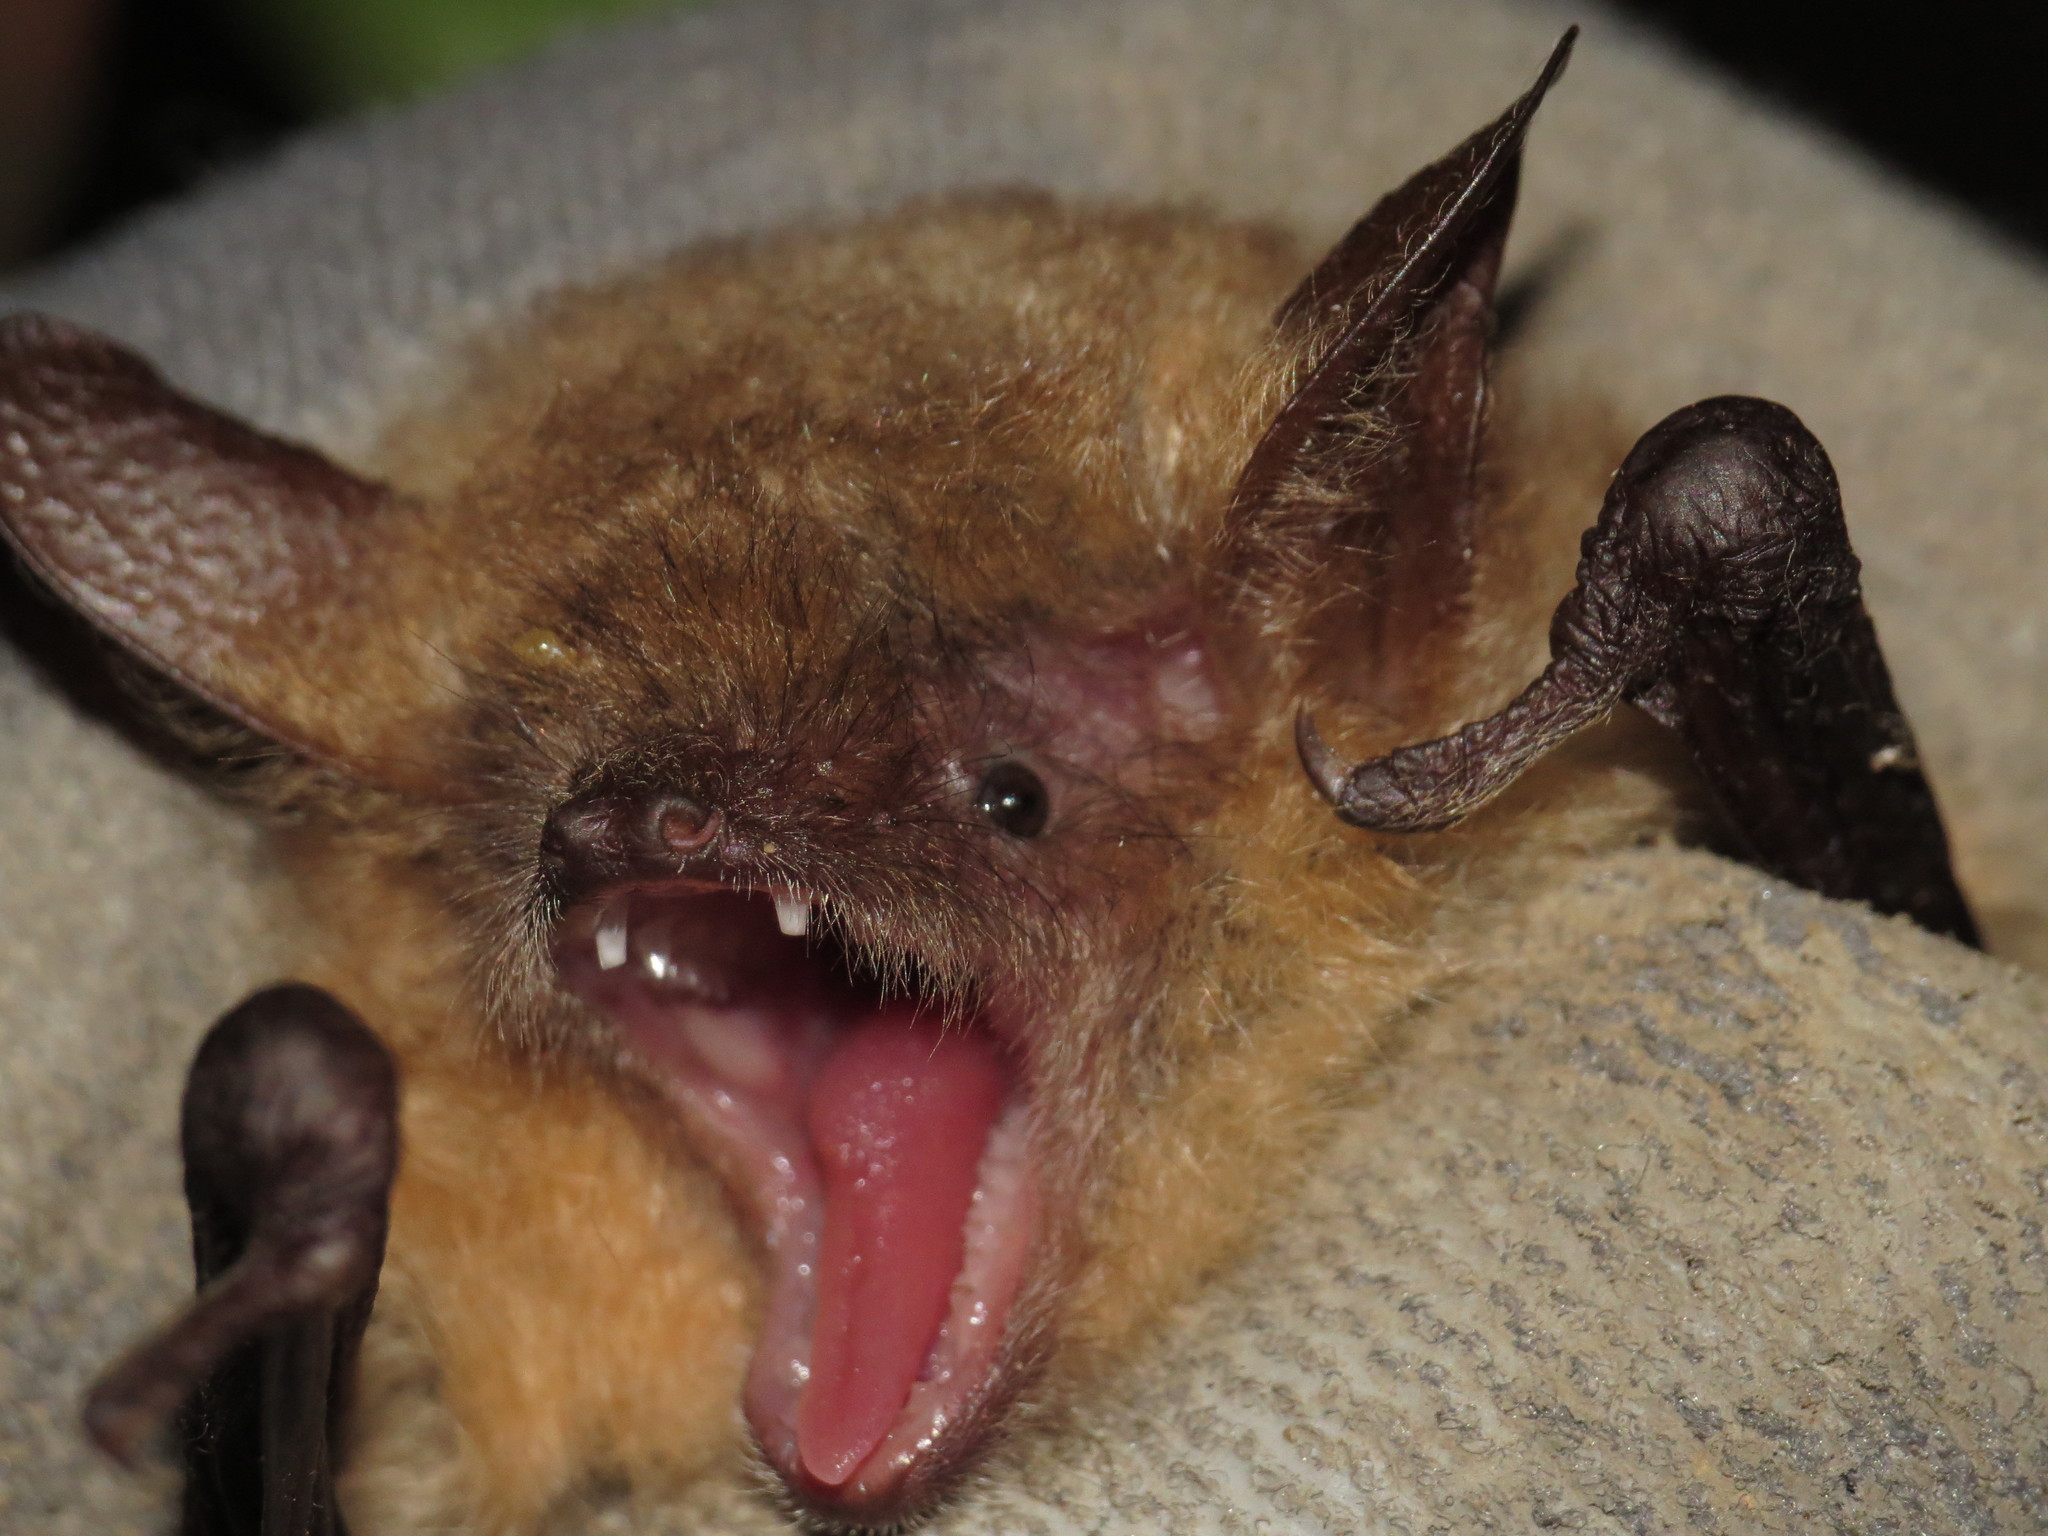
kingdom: Animalia
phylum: Chordata
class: Mammalia
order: Chiroptera
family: Vespertilionidae
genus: Myotis
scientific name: Myotis emarginatus
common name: Geoffroy's bat
